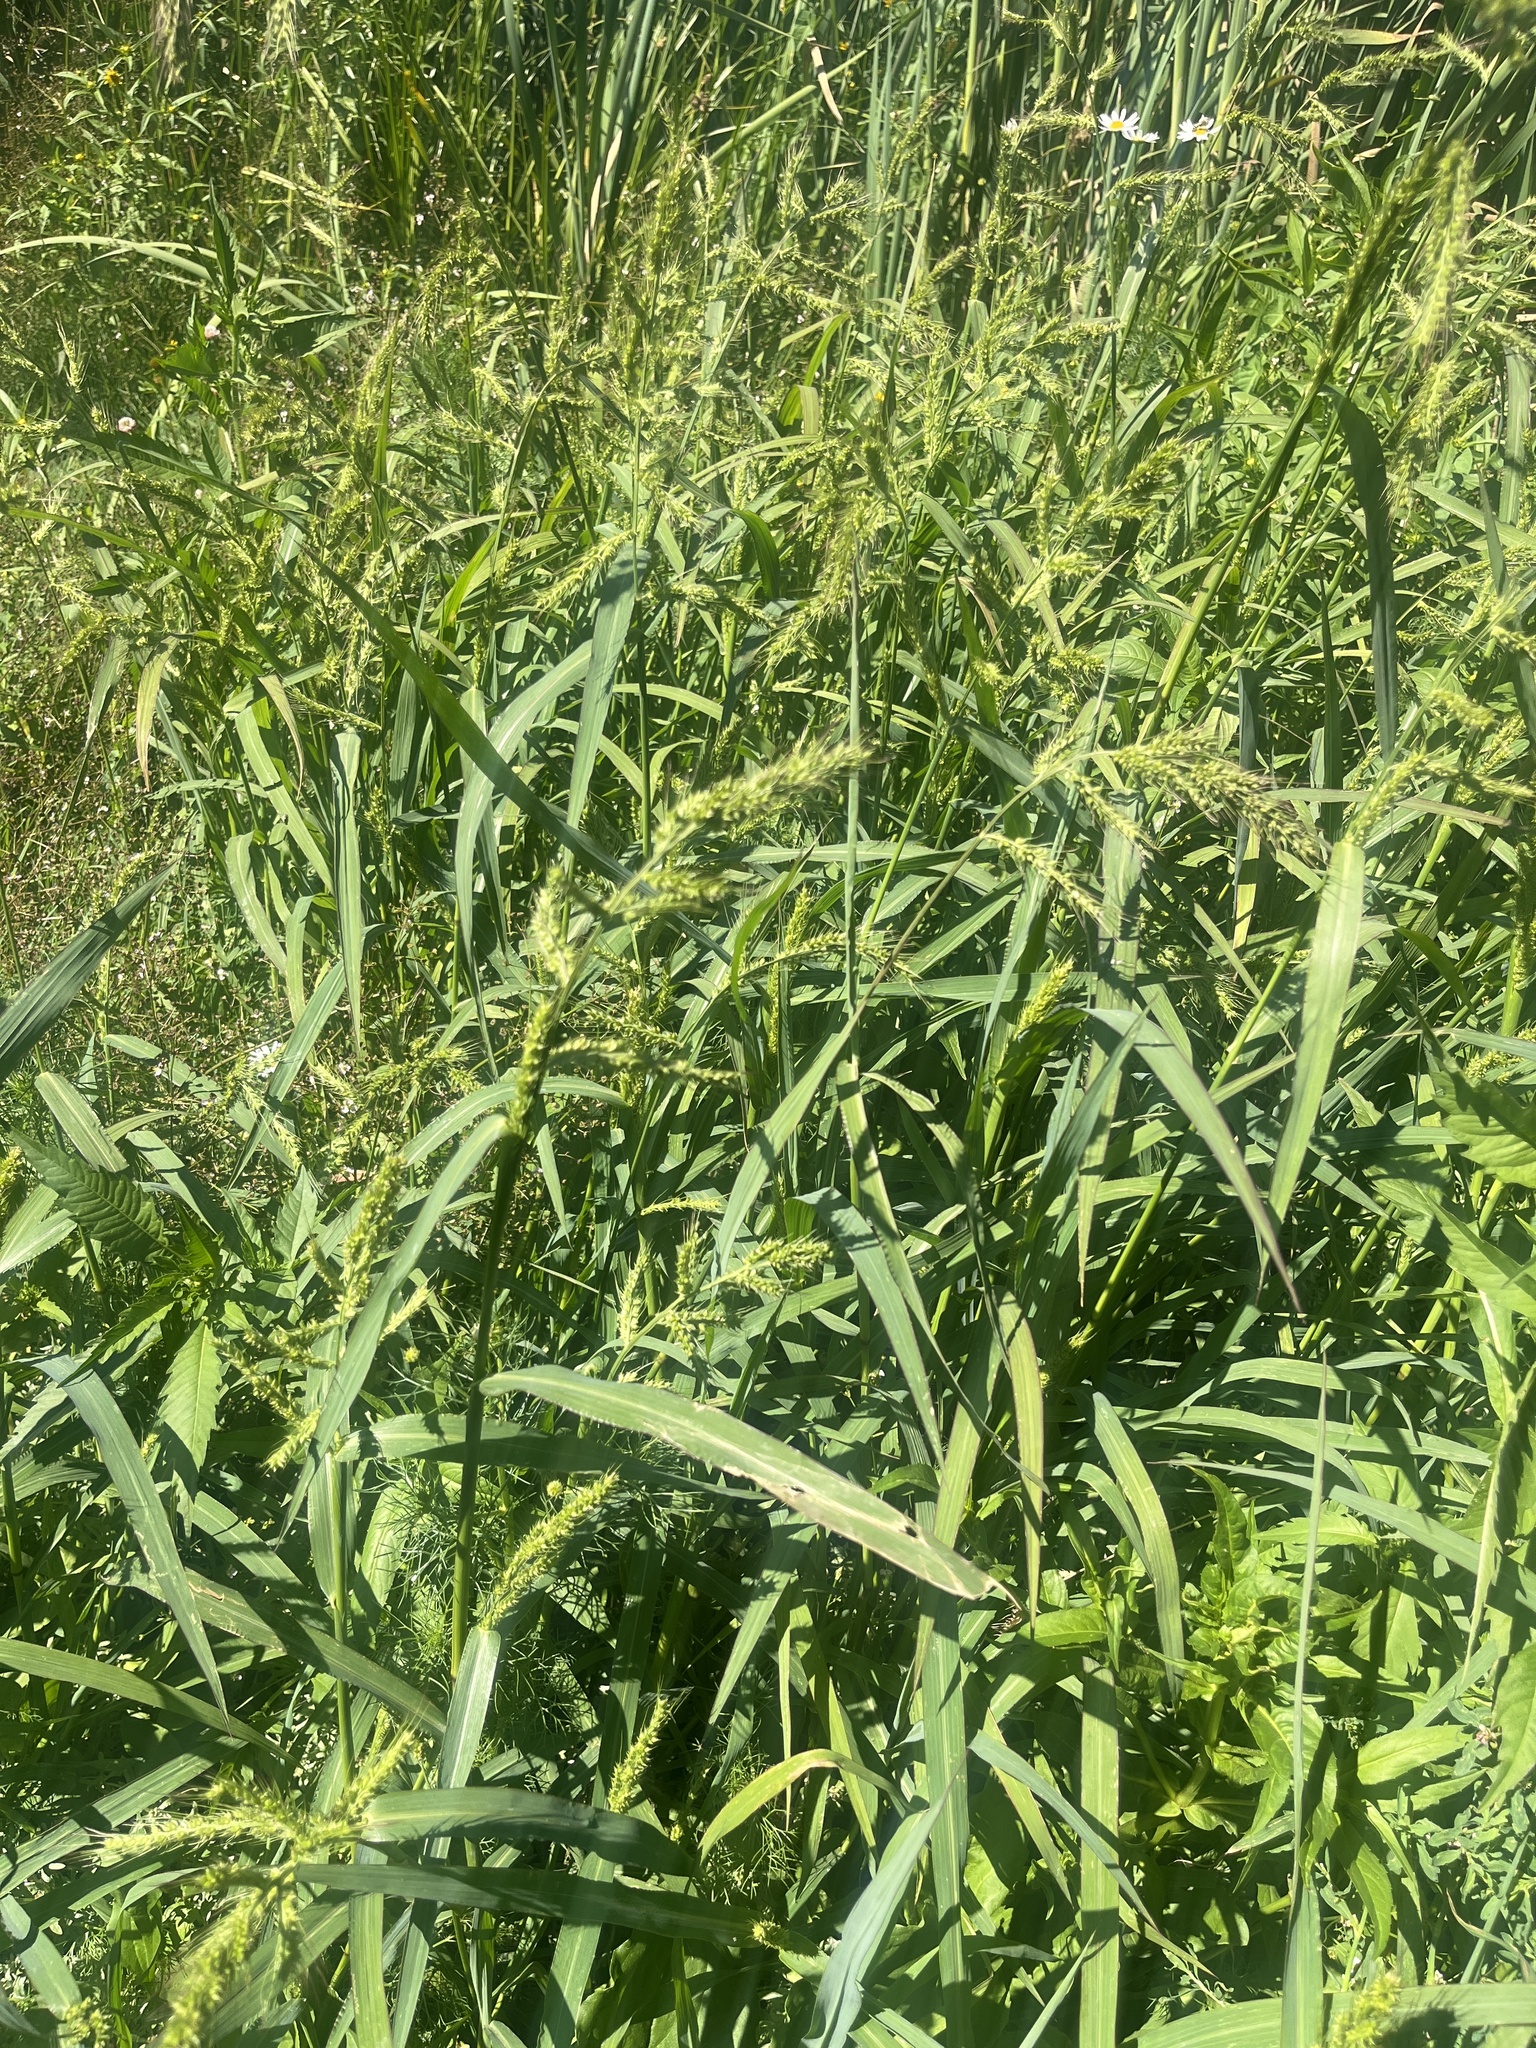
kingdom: Plantae
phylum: Tracheophyta
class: Liliopsida
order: Poales
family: Poaceae
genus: Echinochloa
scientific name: Echinochloa crus-galli
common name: Cockspur
